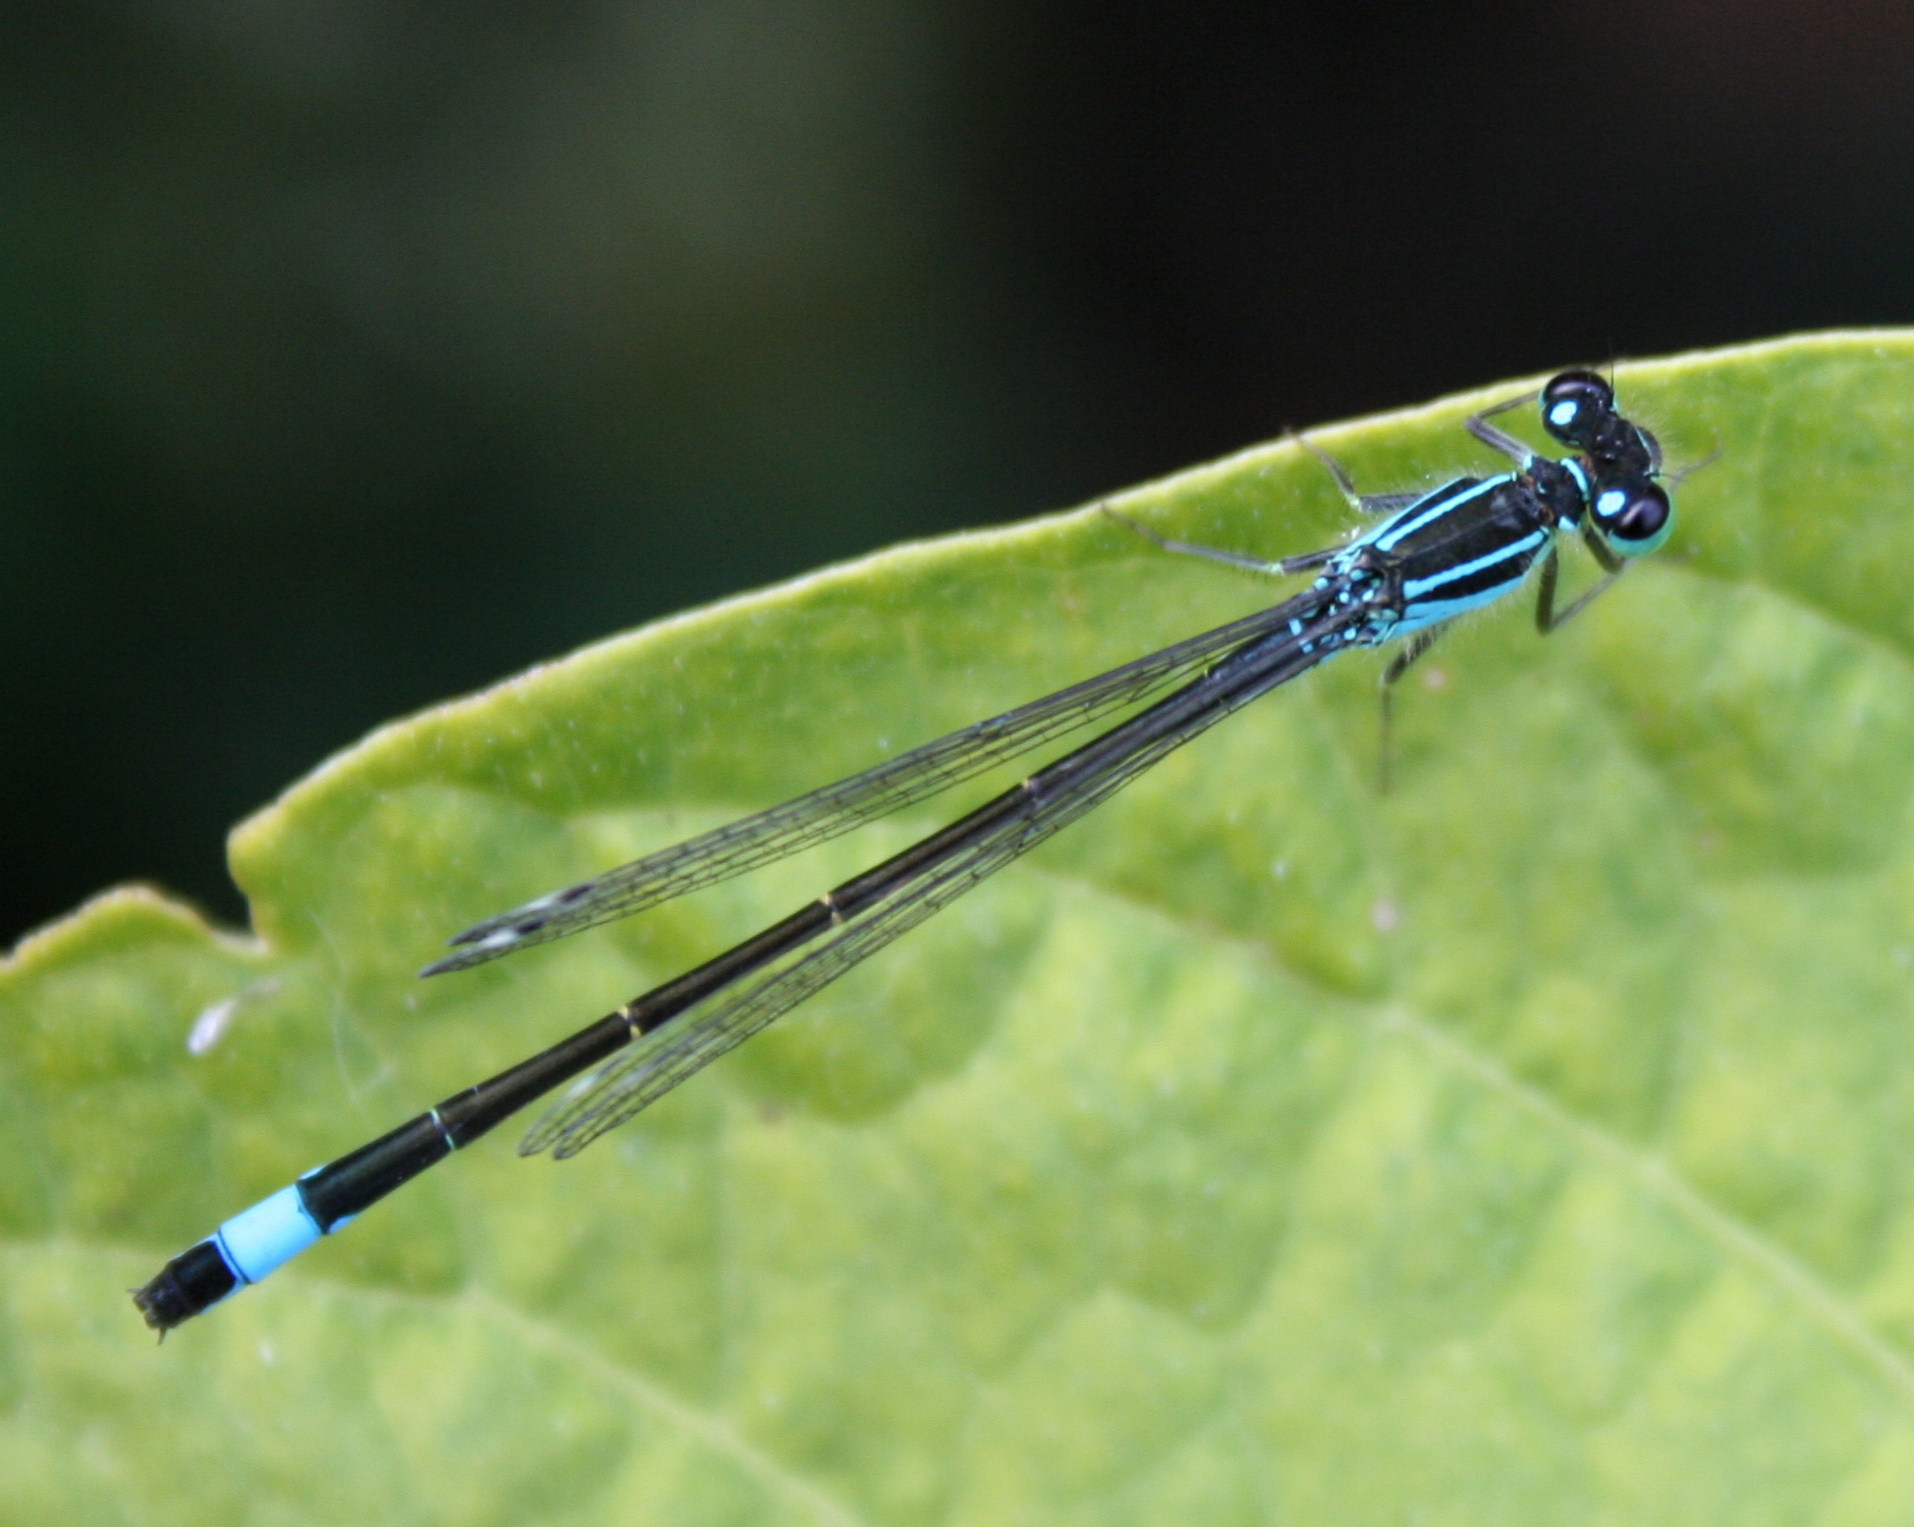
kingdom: Animalia
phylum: Arthropoda
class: Insecta
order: Odonata
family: Coenagrionidae
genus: Ischnura
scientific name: Ischnura elegans
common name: Blue-tailed damselfly
